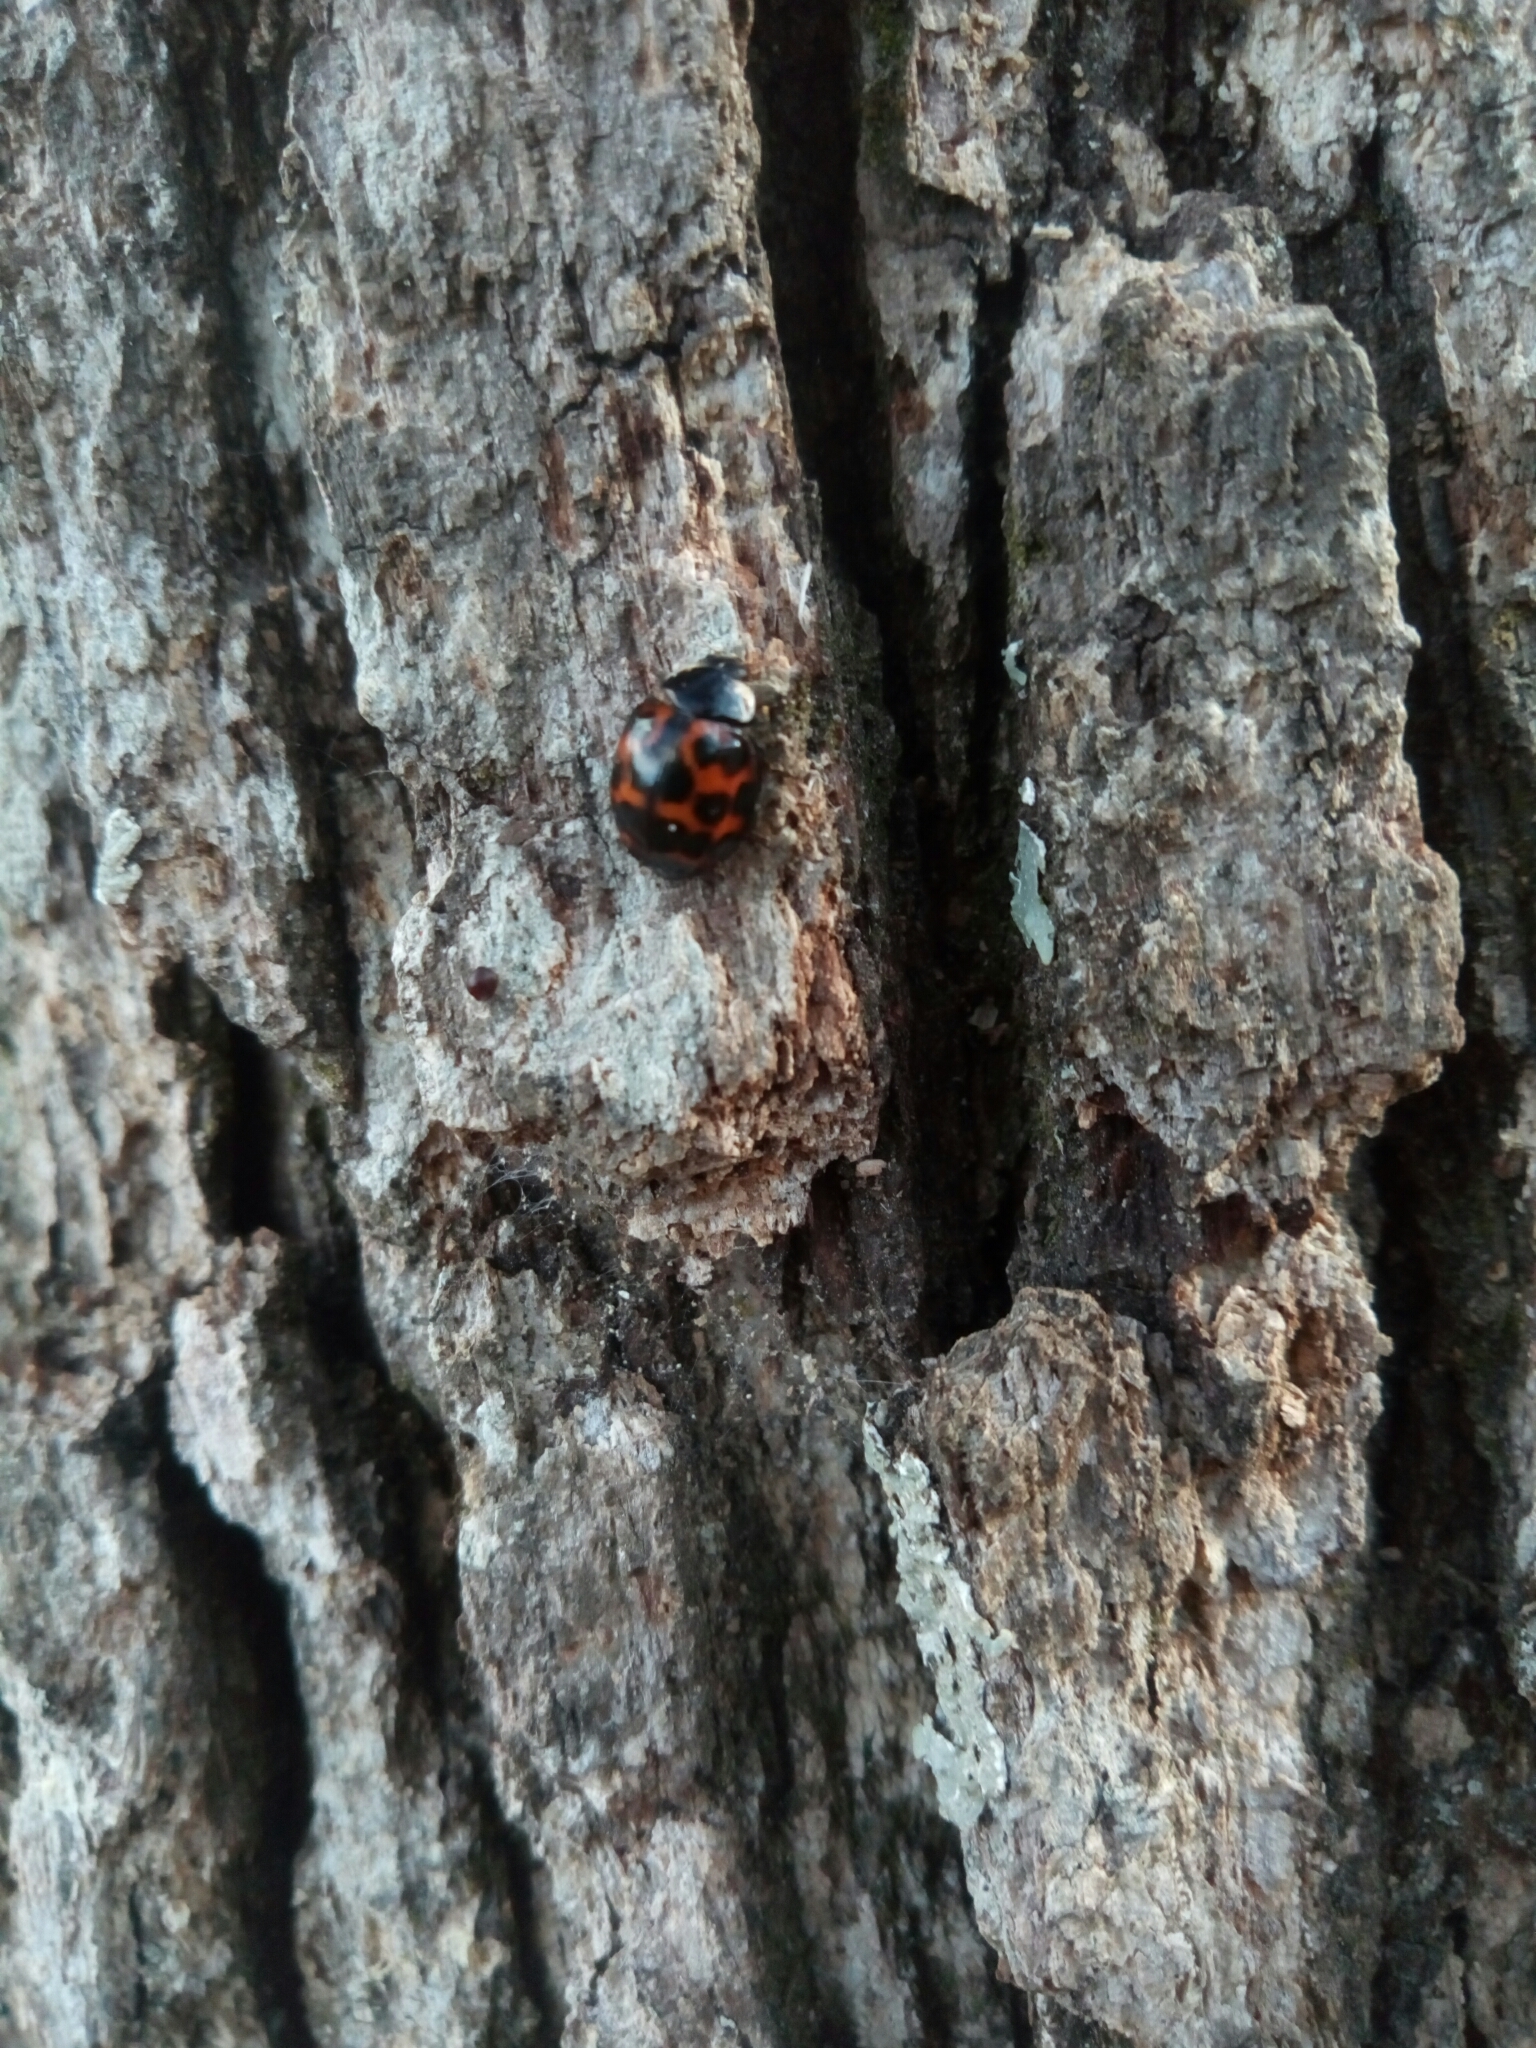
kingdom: Animalia
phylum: Arthropoda
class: Insecta
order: Coleoptera
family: Coccinellidae
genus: Harmonia
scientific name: Harmonia axyridis
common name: Harlequin ladybird
